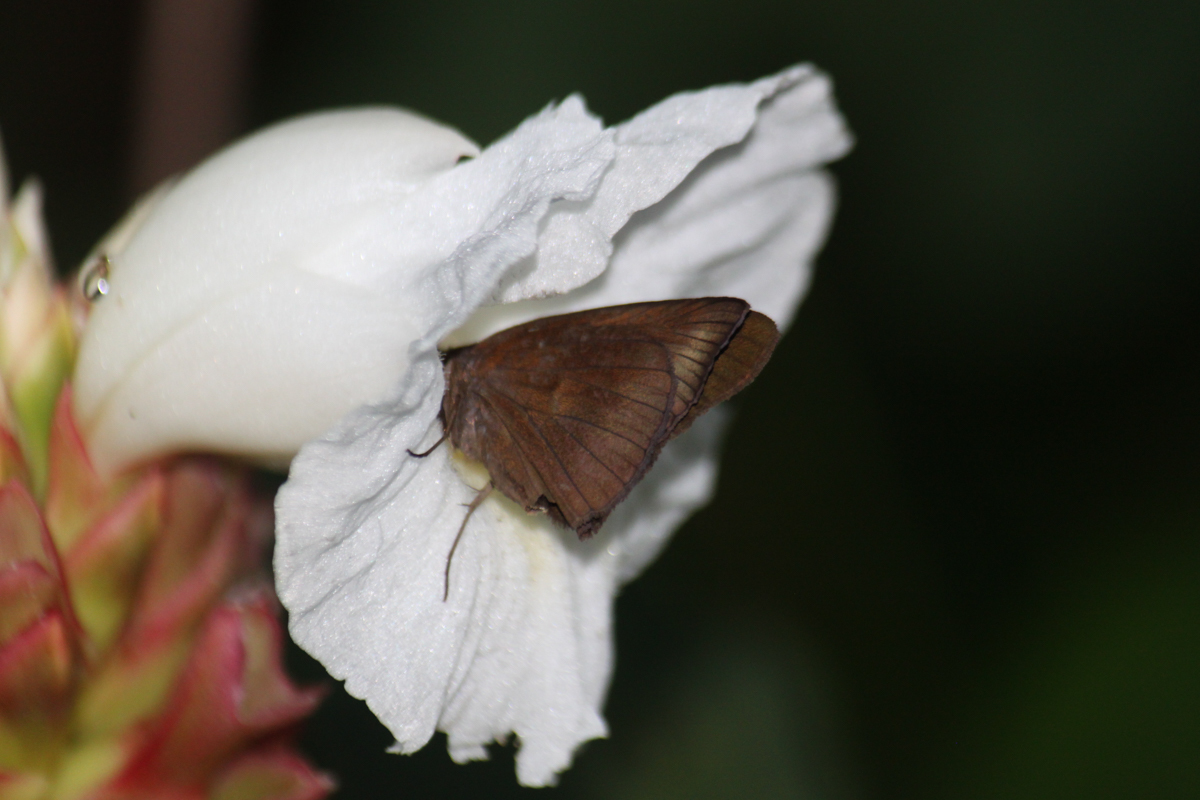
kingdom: Animalia
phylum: Arthropoda
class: Insecta
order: Lepidoptera
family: Hesperiidae
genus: Ancistroides
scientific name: Ancistroides nigrita
